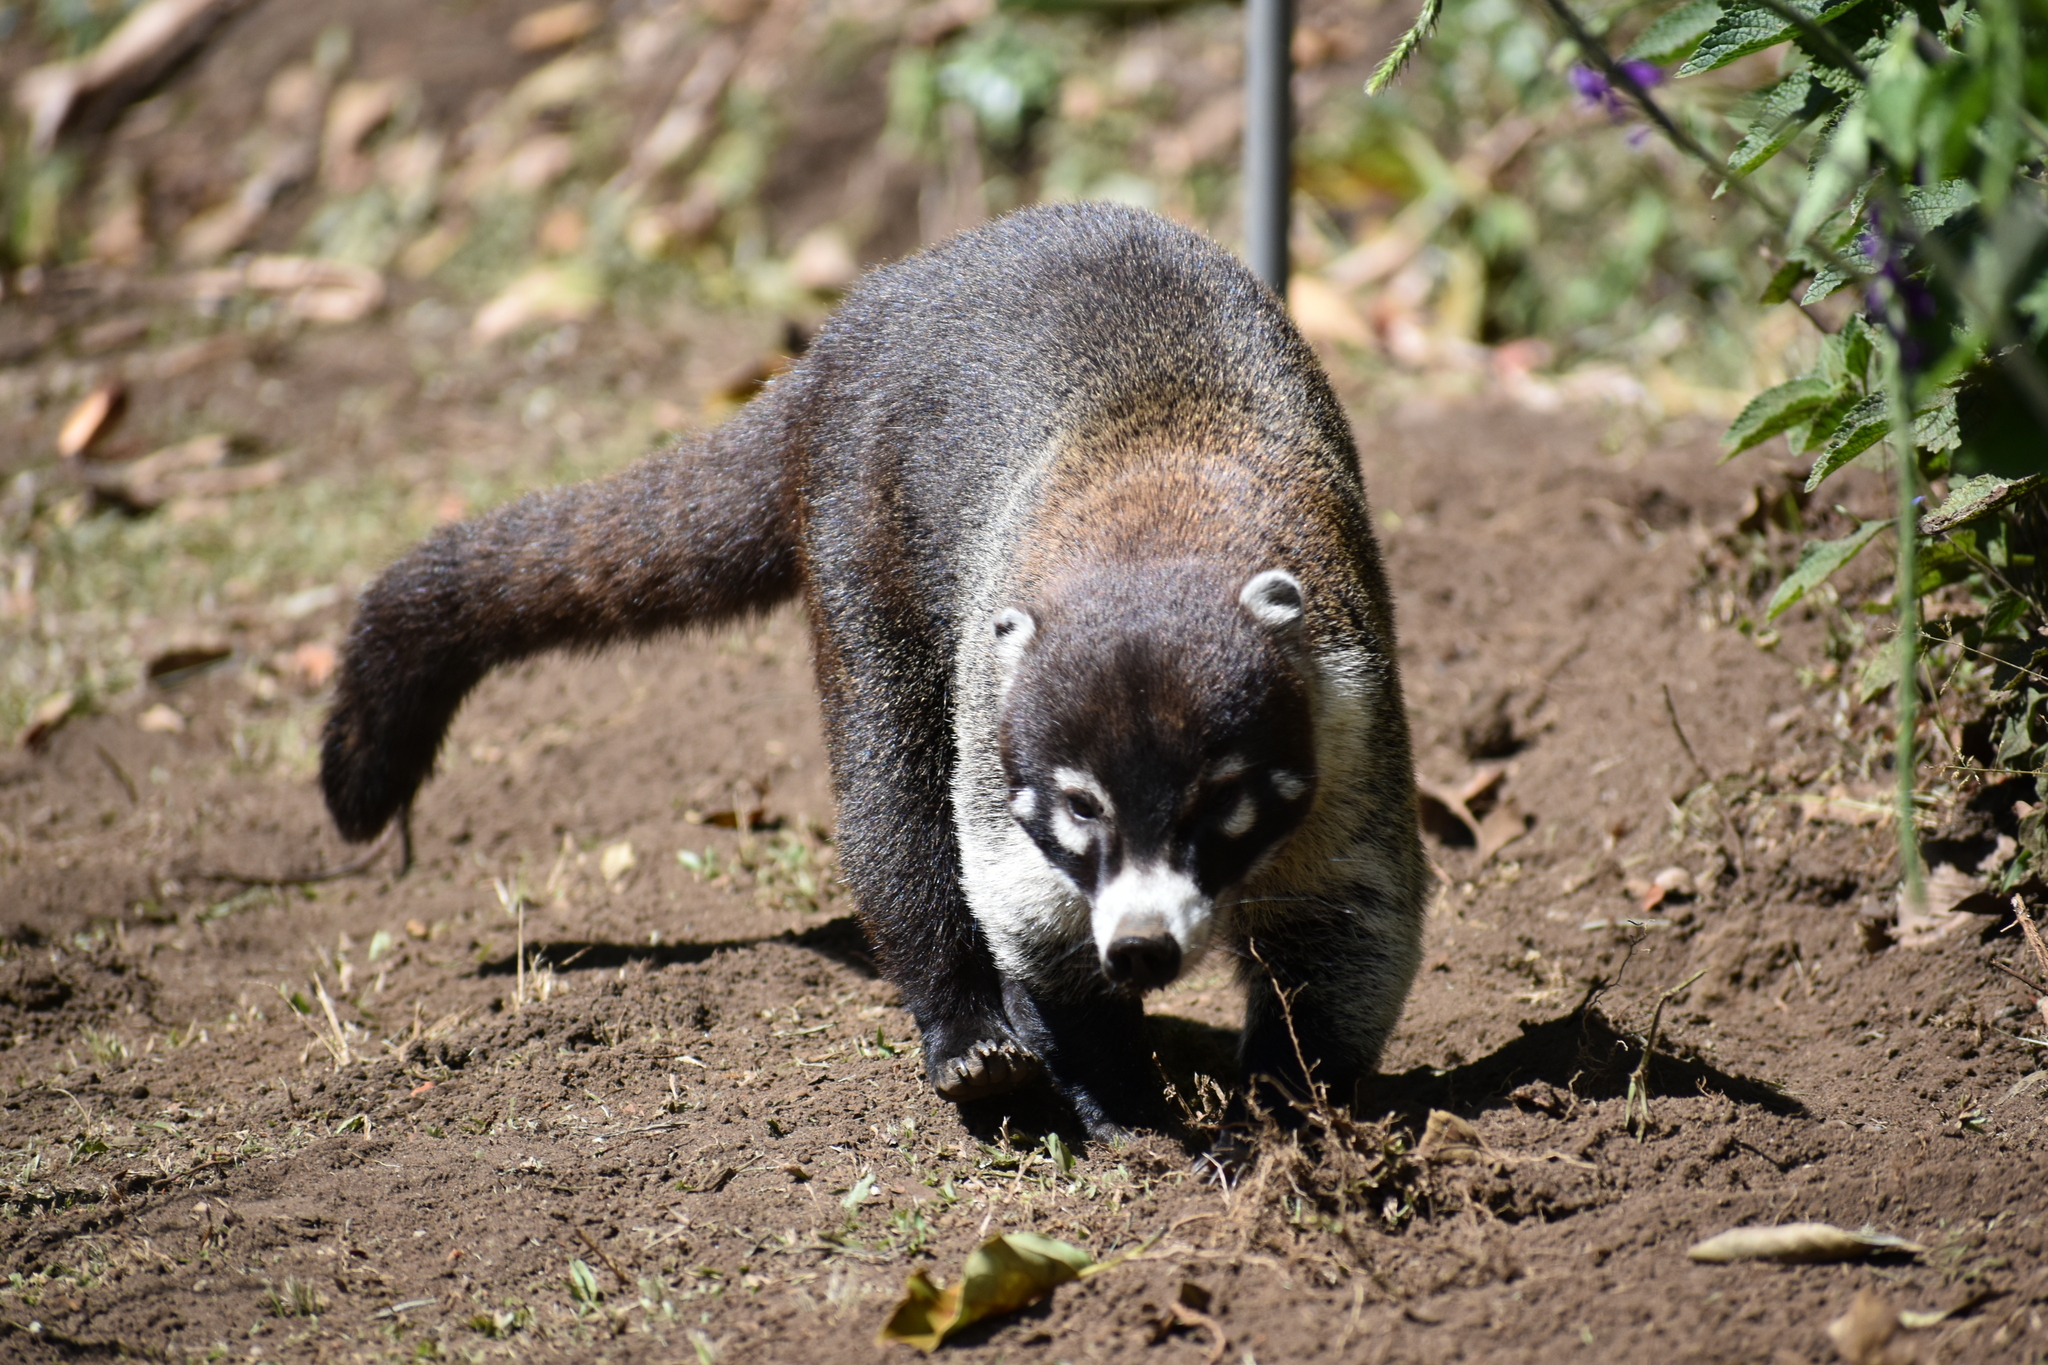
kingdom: Animalia
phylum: Chordata
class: Mammalia
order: Carnivora
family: Procyonidae
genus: Nasua
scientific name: Nasua narica
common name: White-nosed coati
